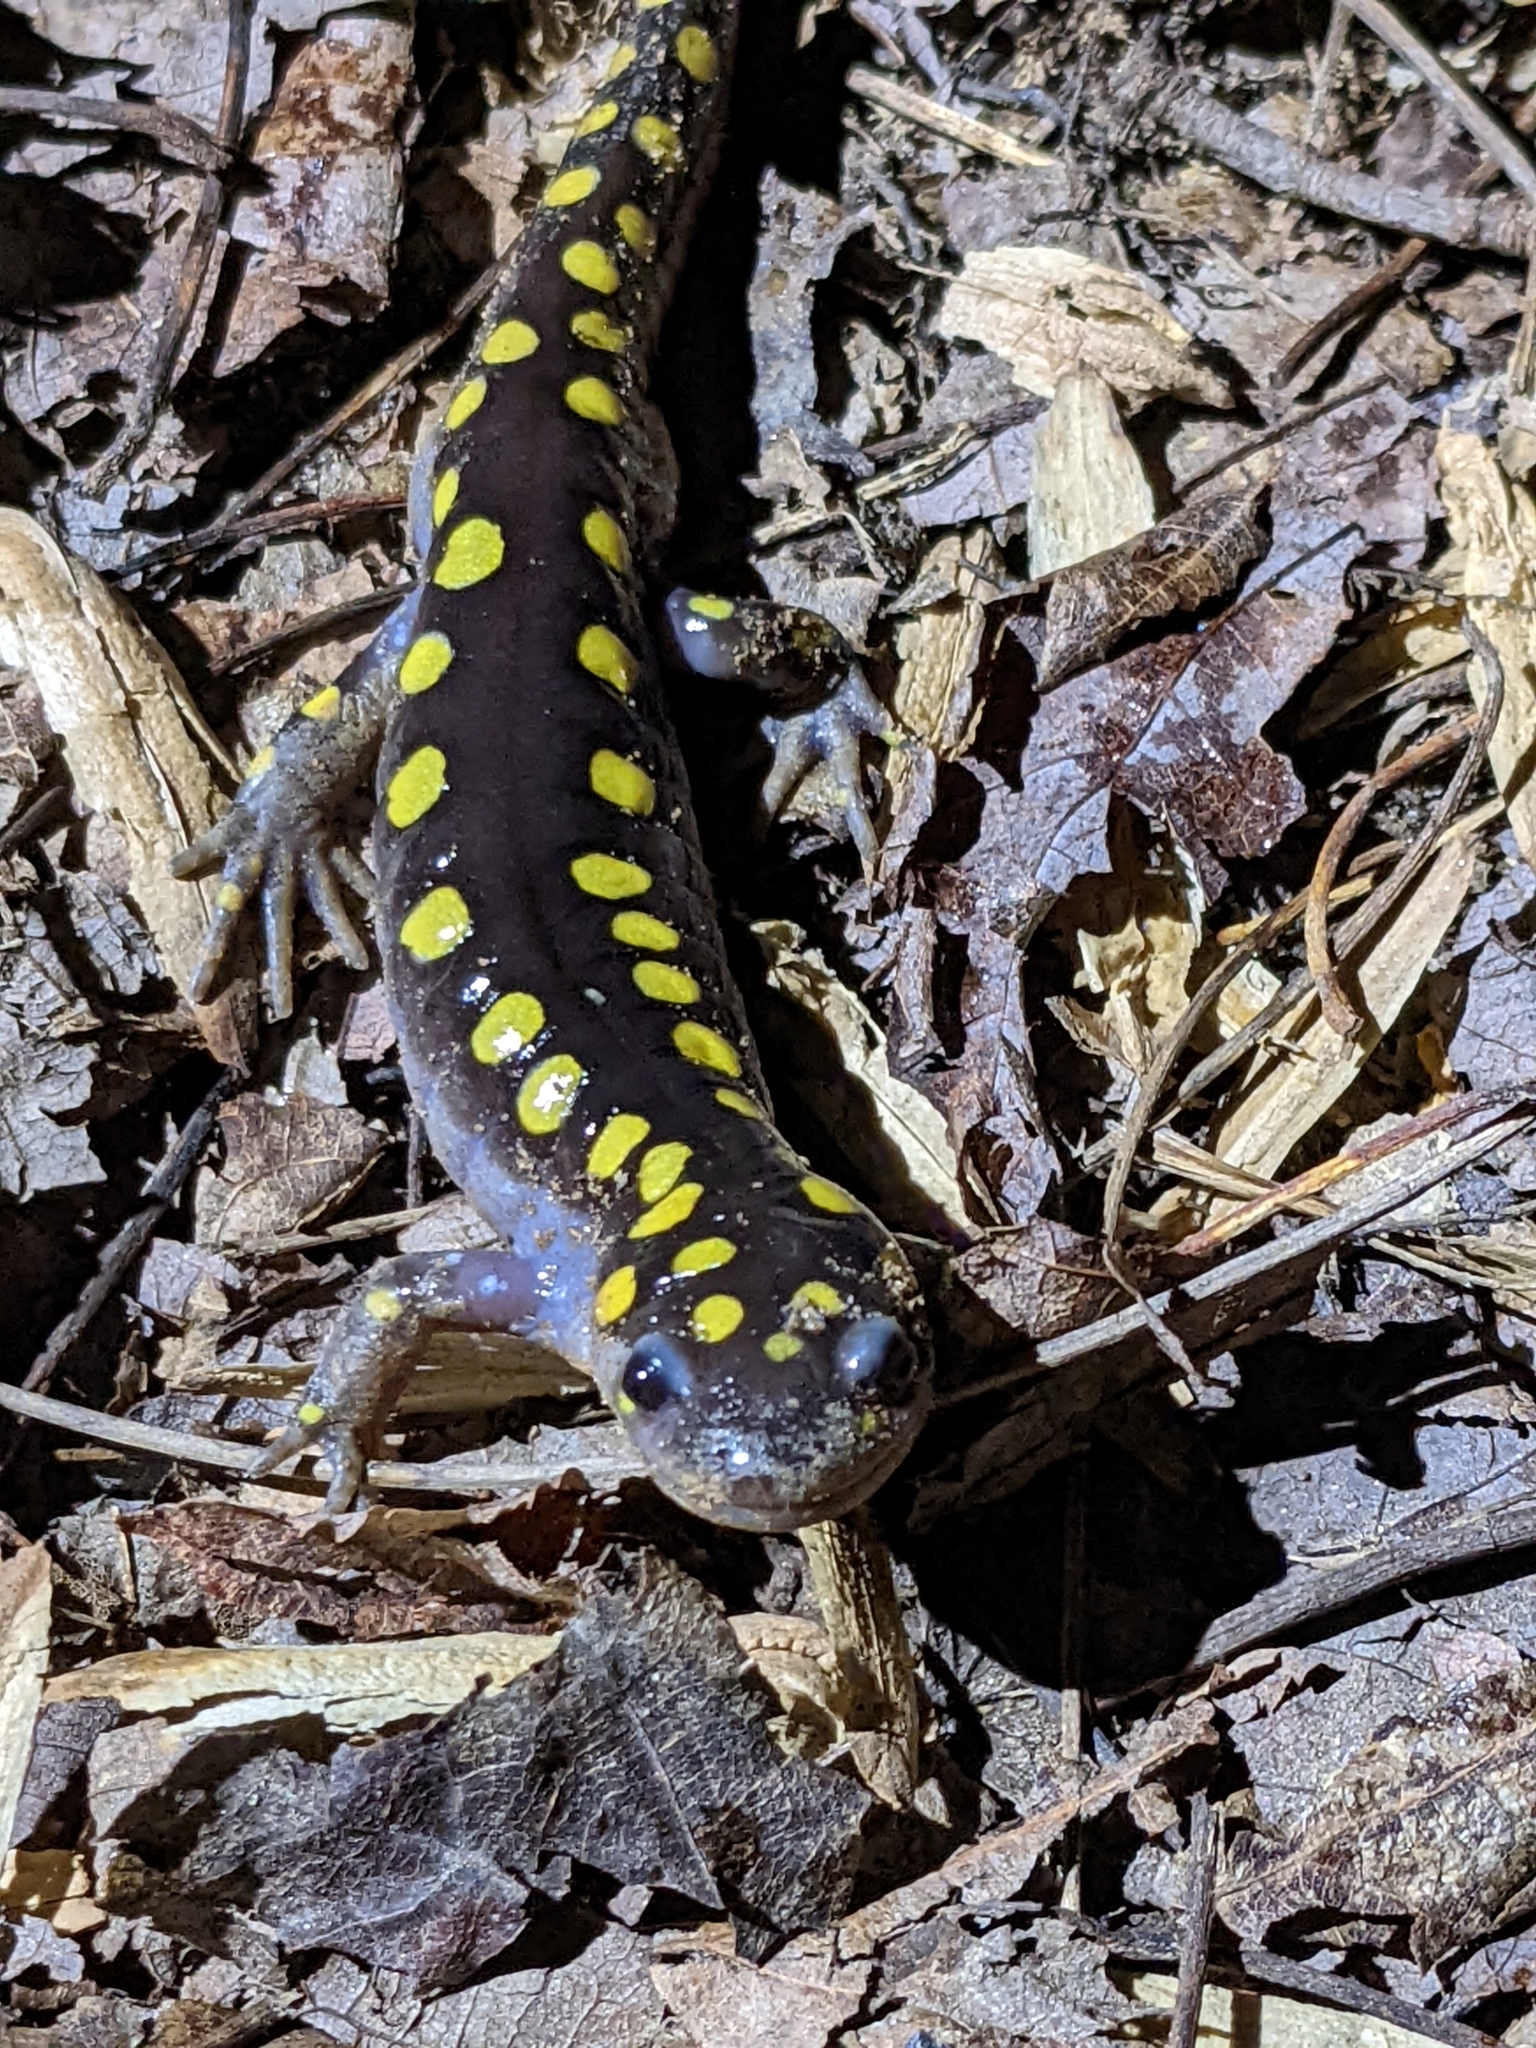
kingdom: Animalia
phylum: Chordata
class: Amphibia
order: Caudata
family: Ambystomatidae
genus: Ambystoma
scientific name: Ambystoma maculatum
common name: Spotted salamander
